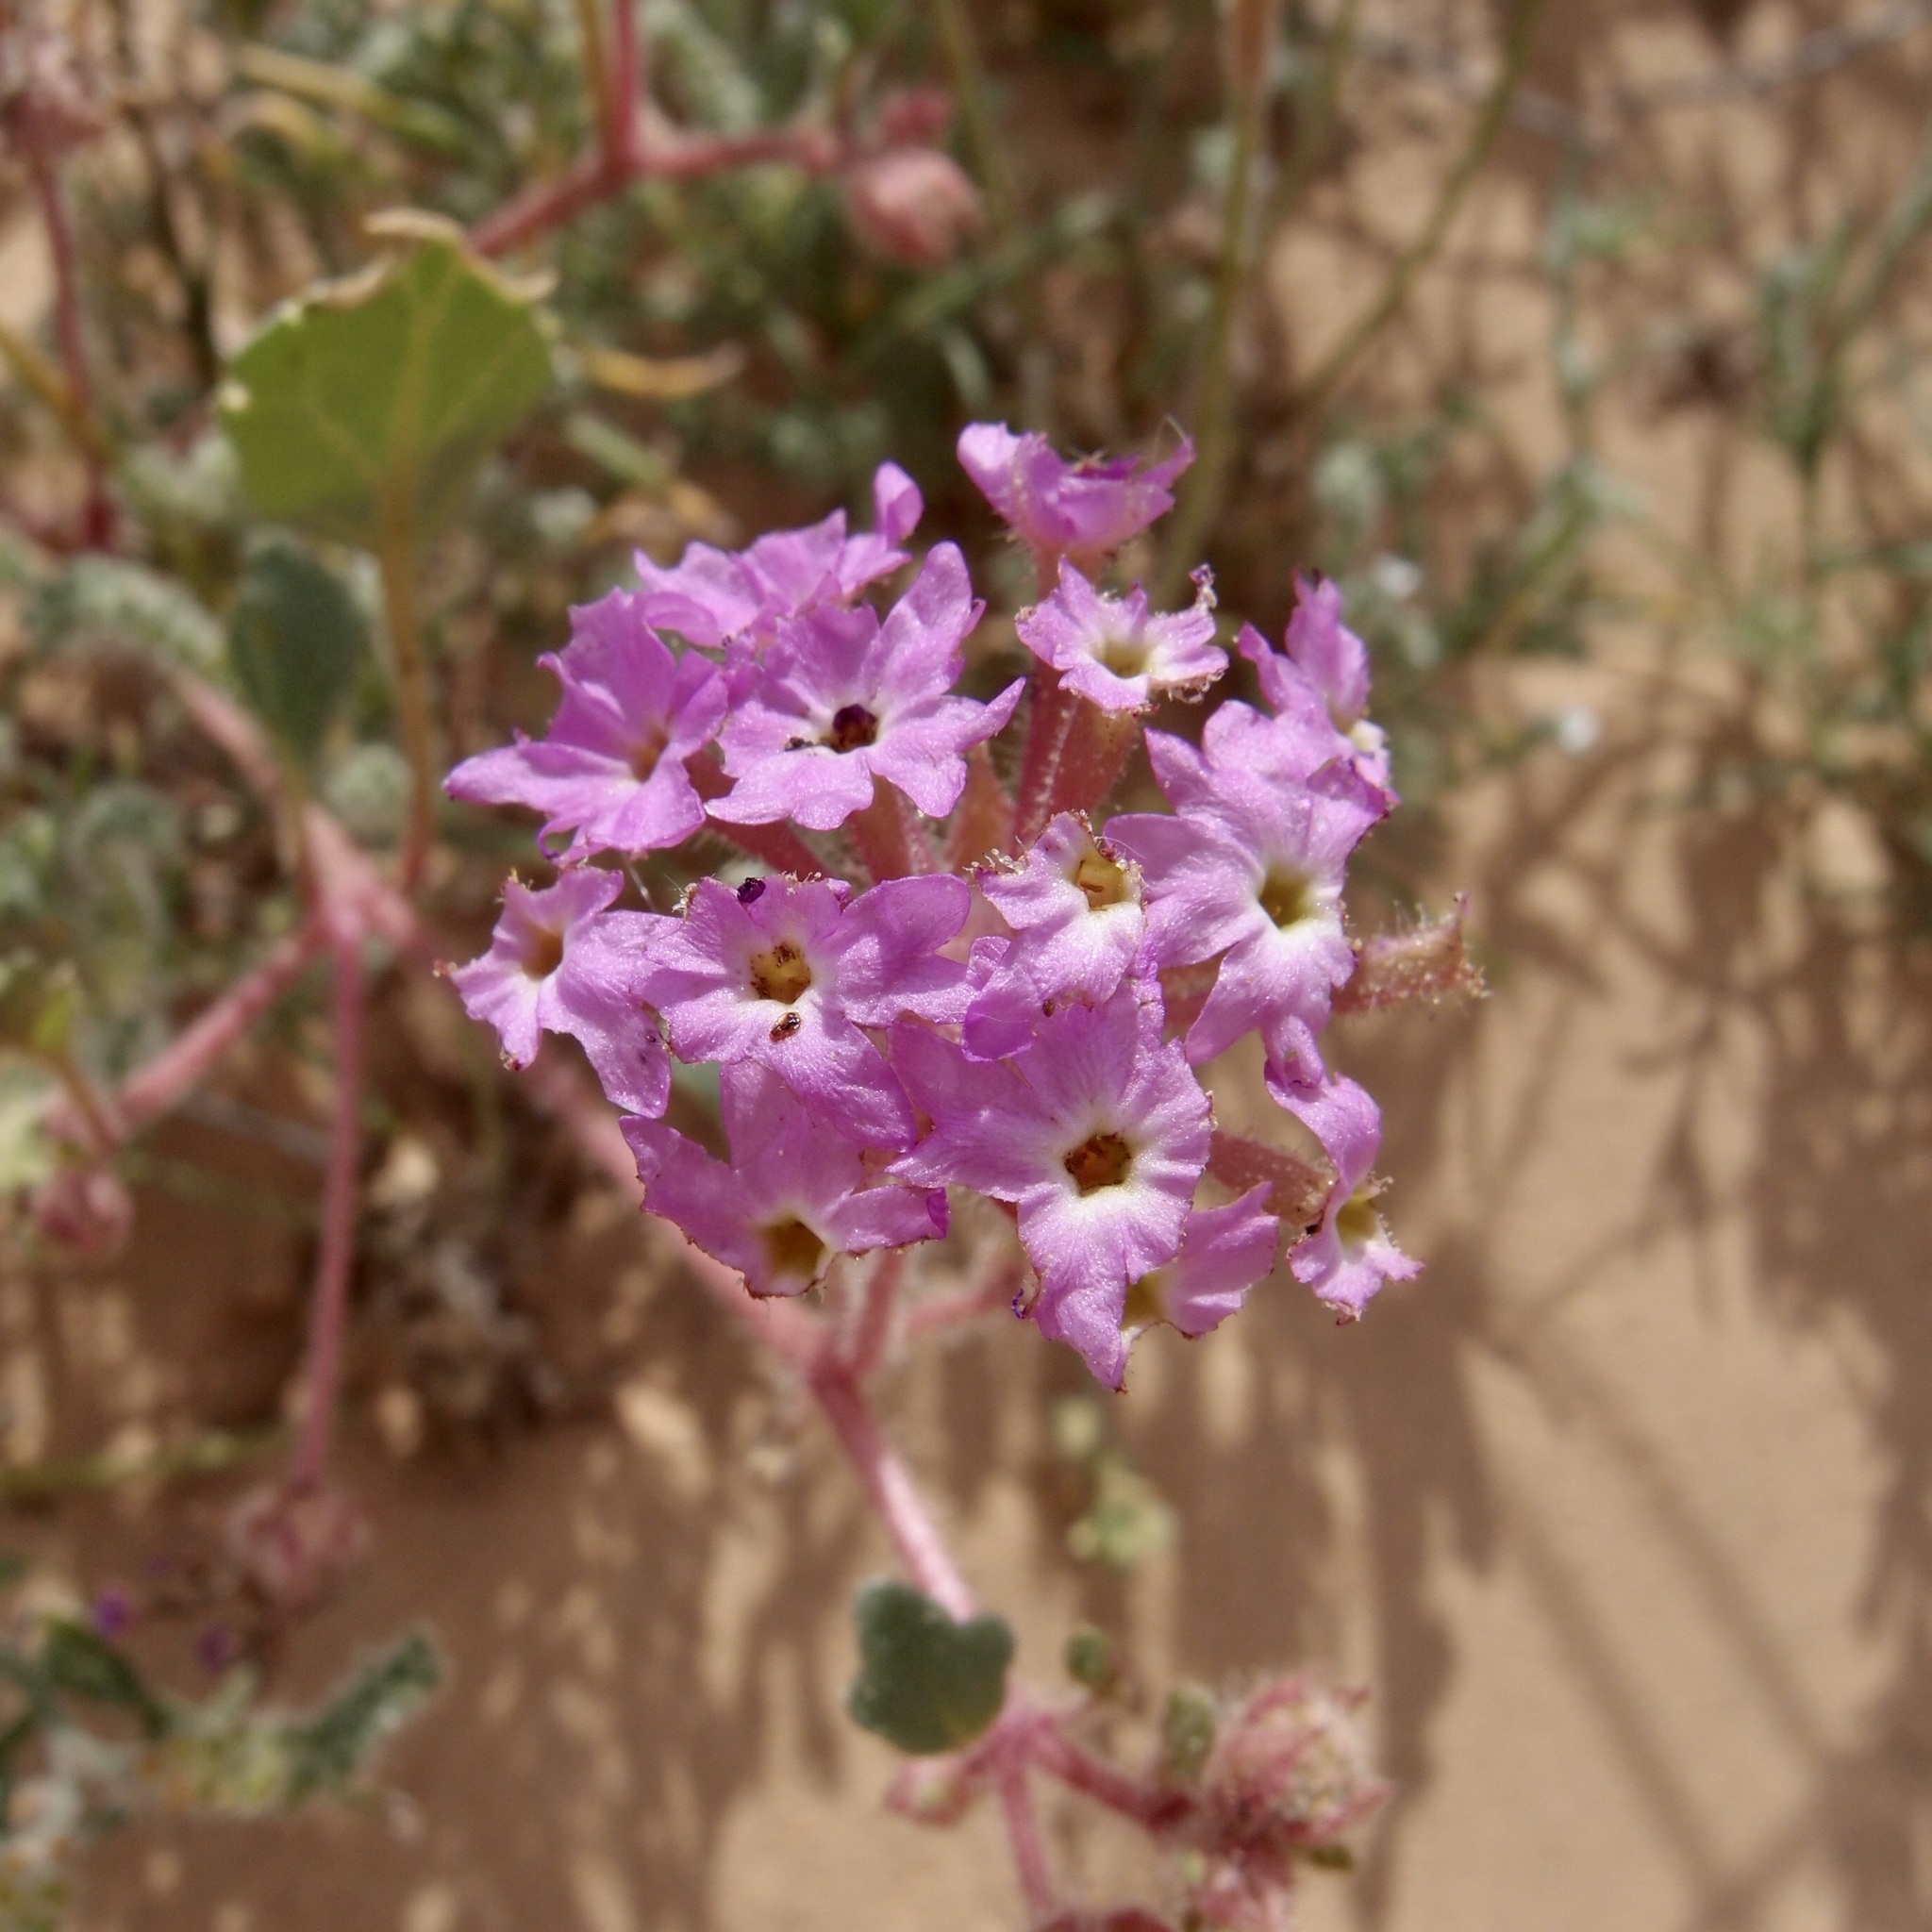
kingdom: Plantae
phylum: Tracheophyta
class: Magnoliopsida
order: Caryophyllales
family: Nyctaginaceae
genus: Abronia
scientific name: Abronia villosa
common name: Desert sand-verbena
